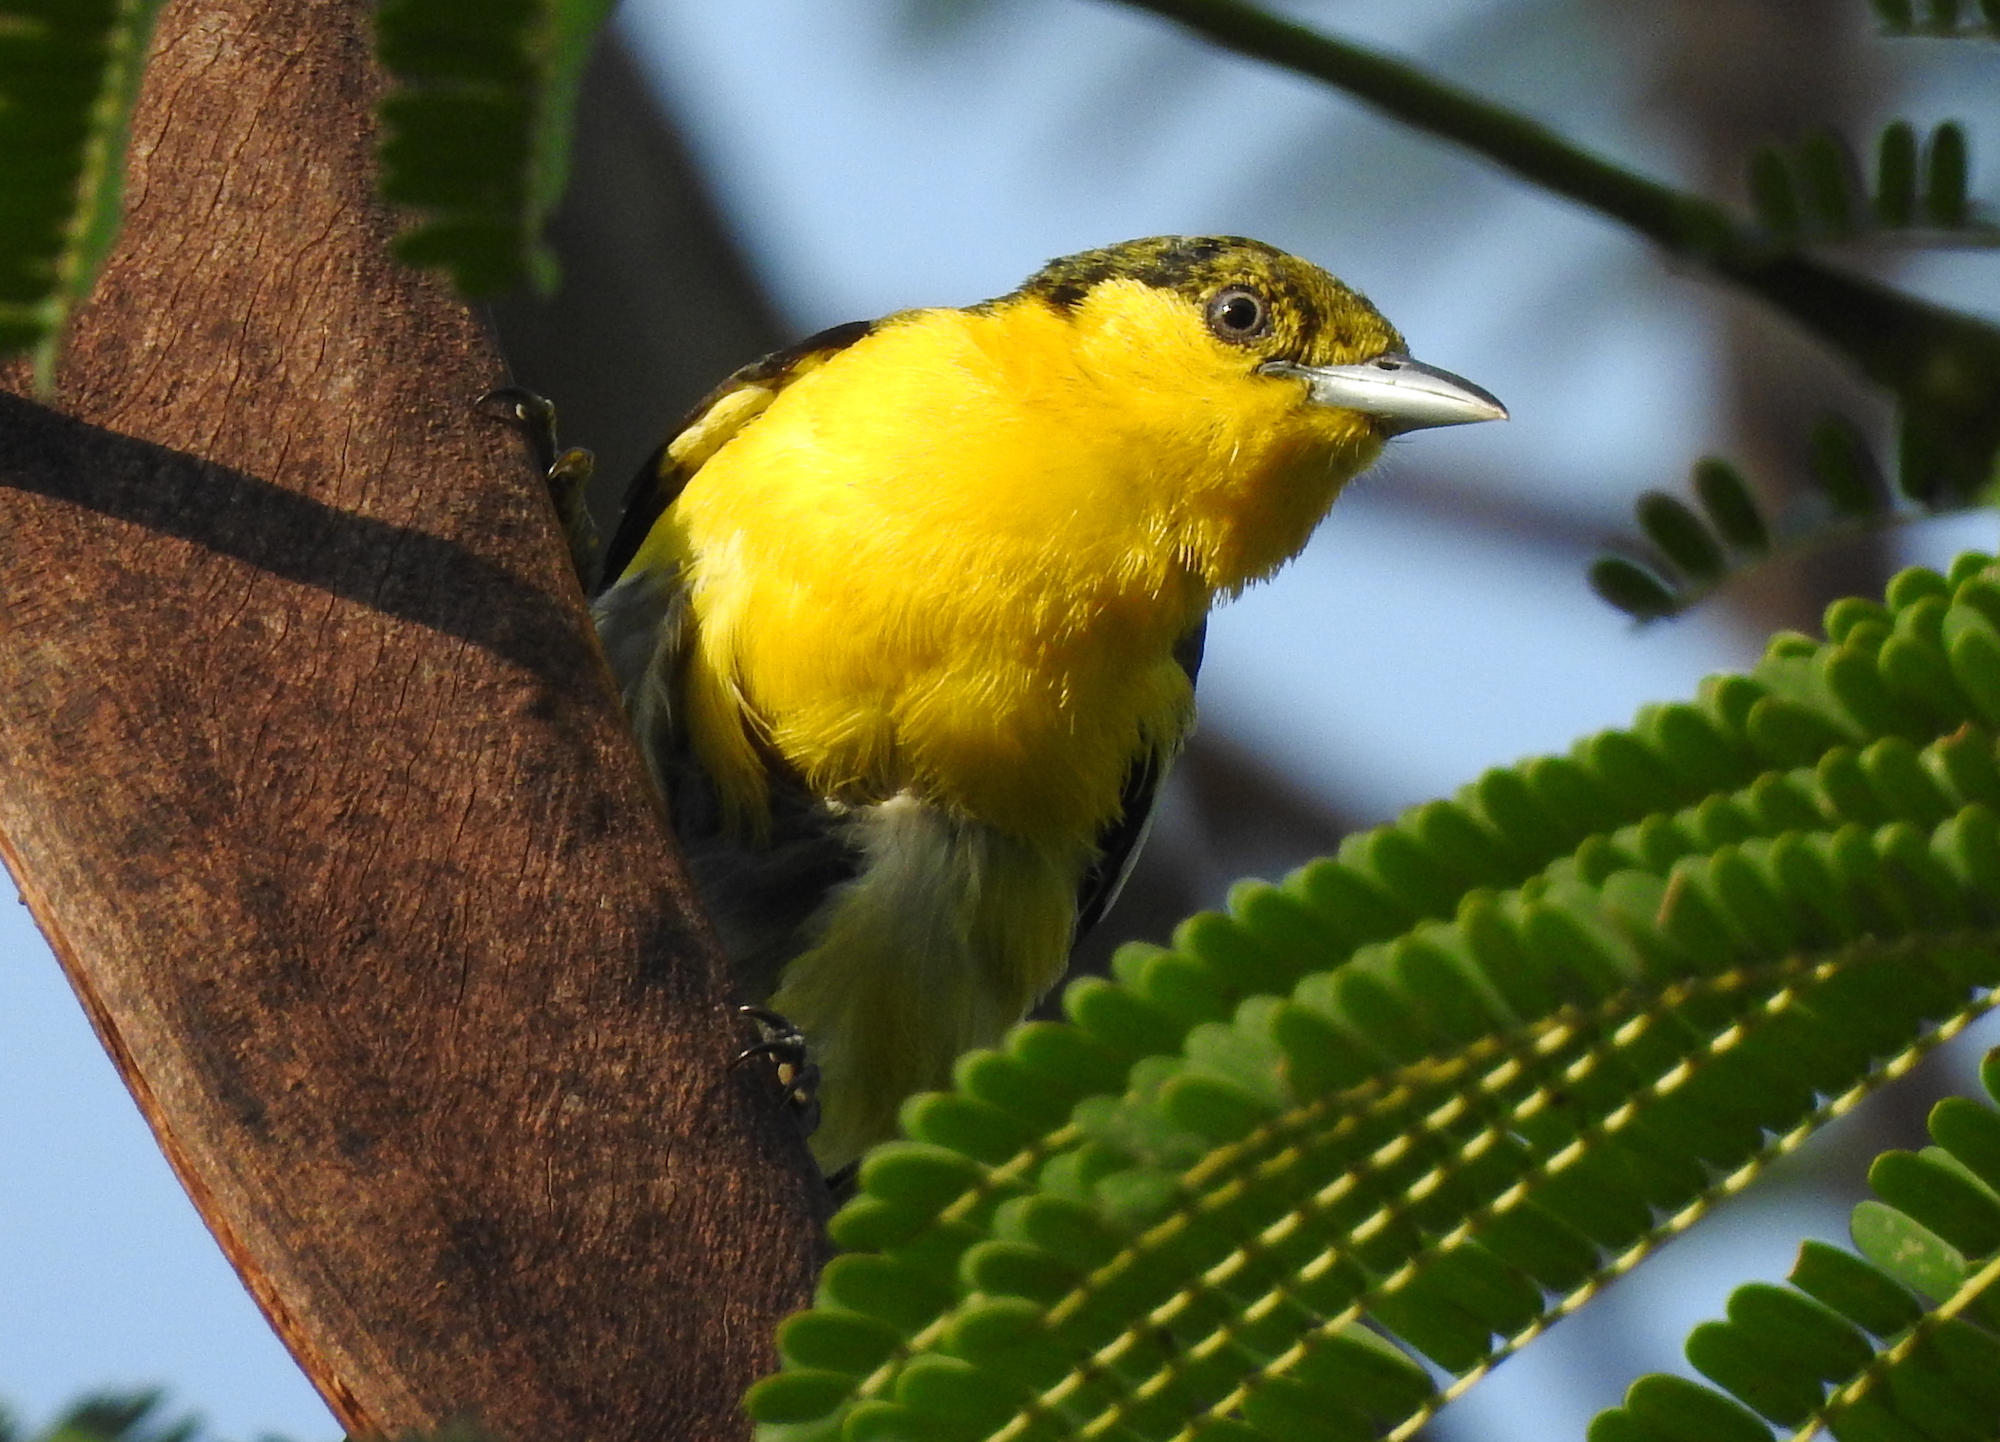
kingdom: Animalia
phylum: Chordata
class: Aves
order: Passeriformes
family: Aegithinidae
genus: Aegithina
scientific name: Aegithina tiphia
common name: Common iora
